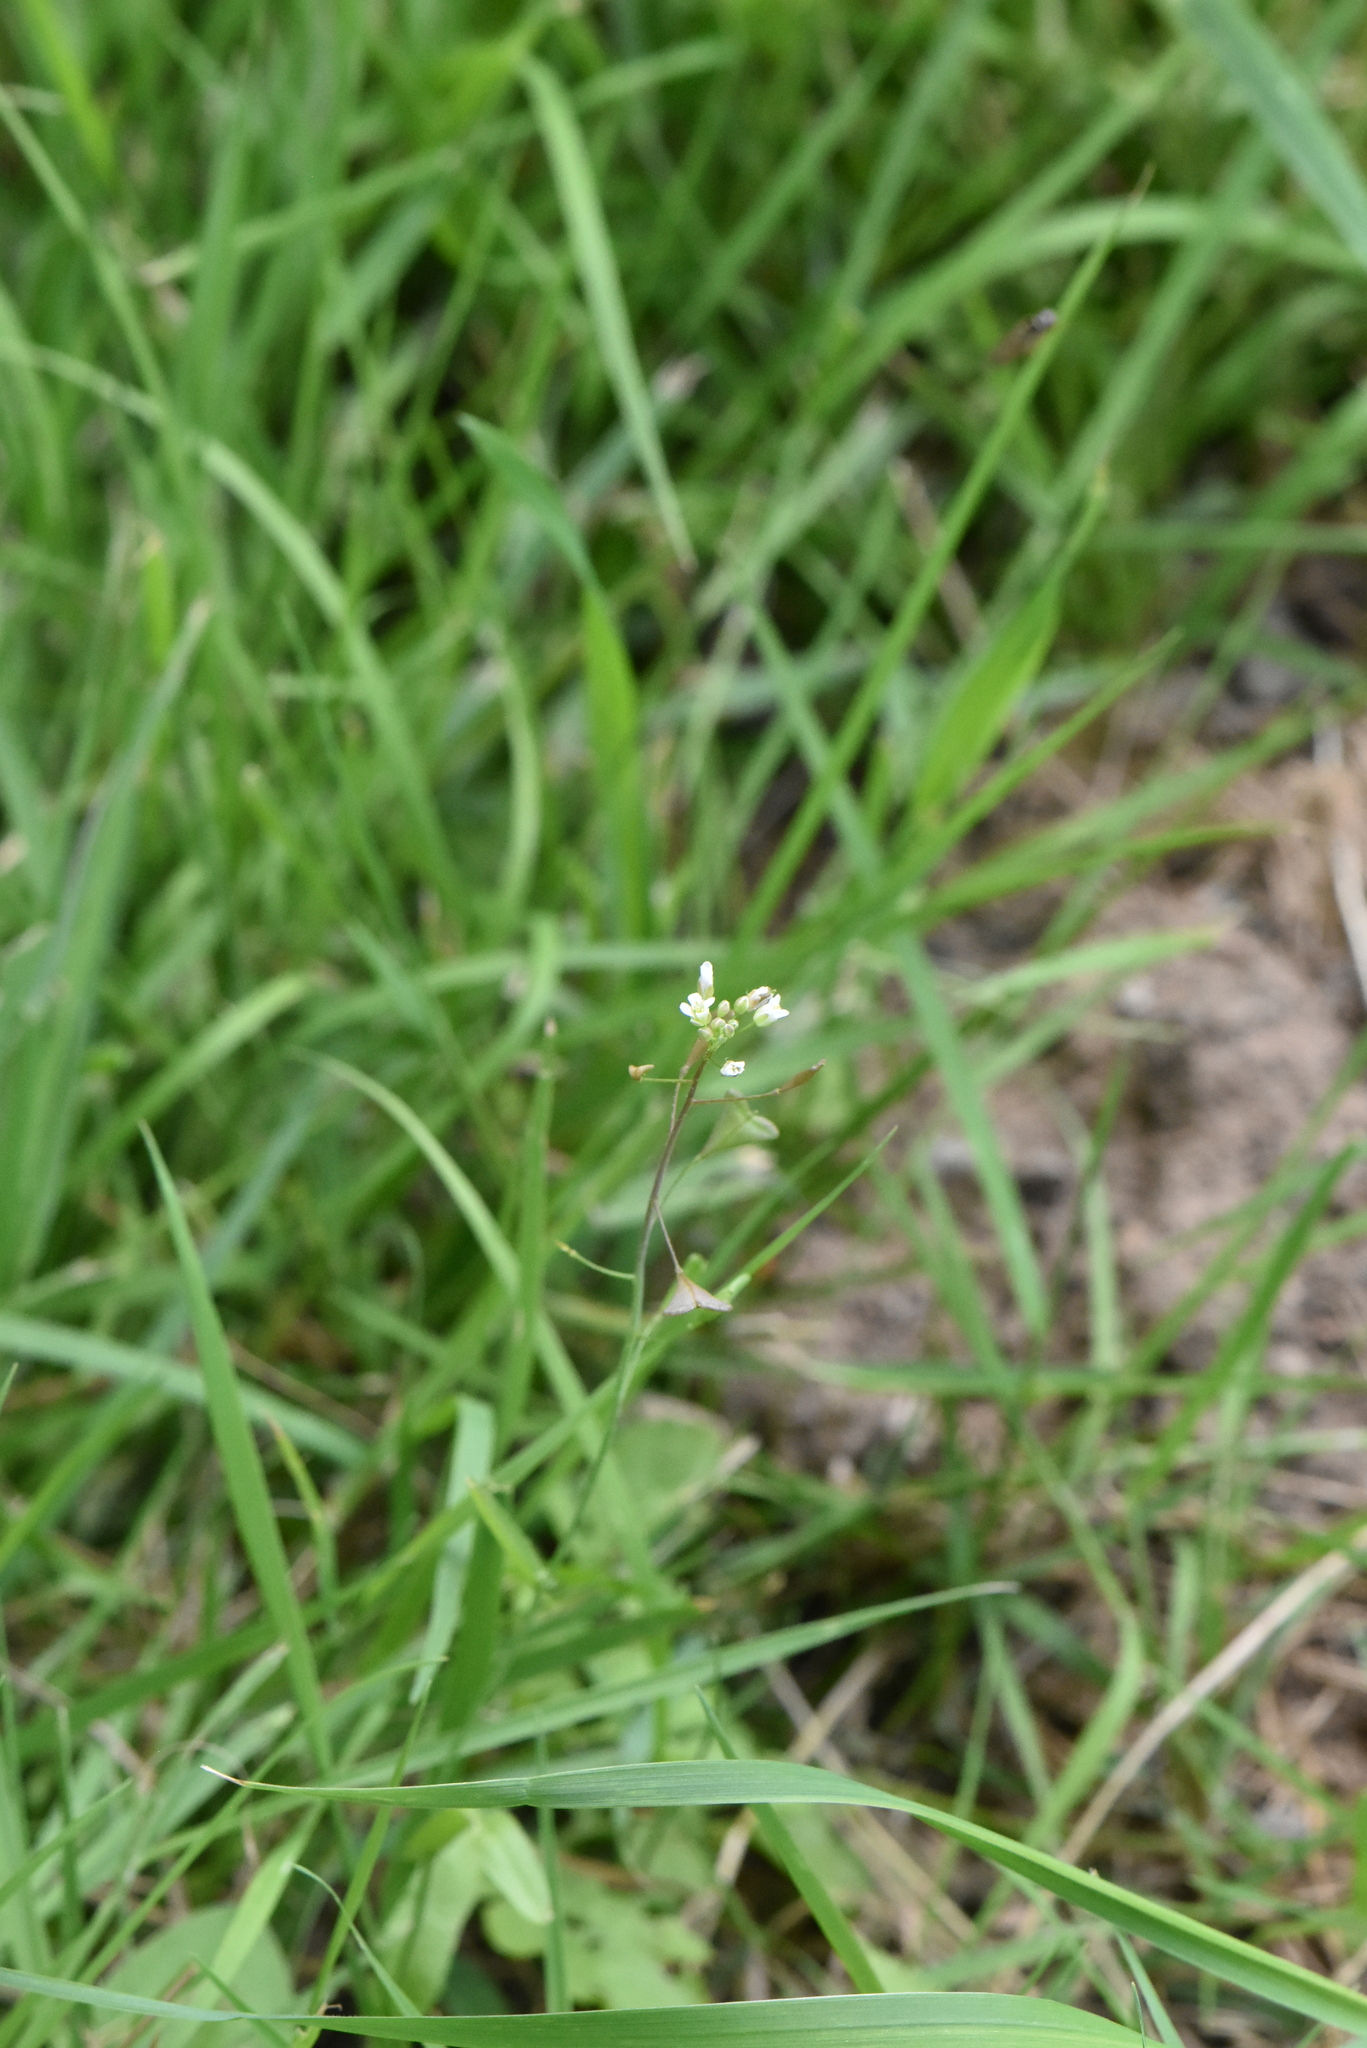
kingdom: Plantae
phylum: Tracheophyta
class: Magnoliopsida
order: Brassicales
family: Brassicaceae
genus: Capsella
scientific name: Capsella bursa-pastoris
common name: Shepherd's purse
